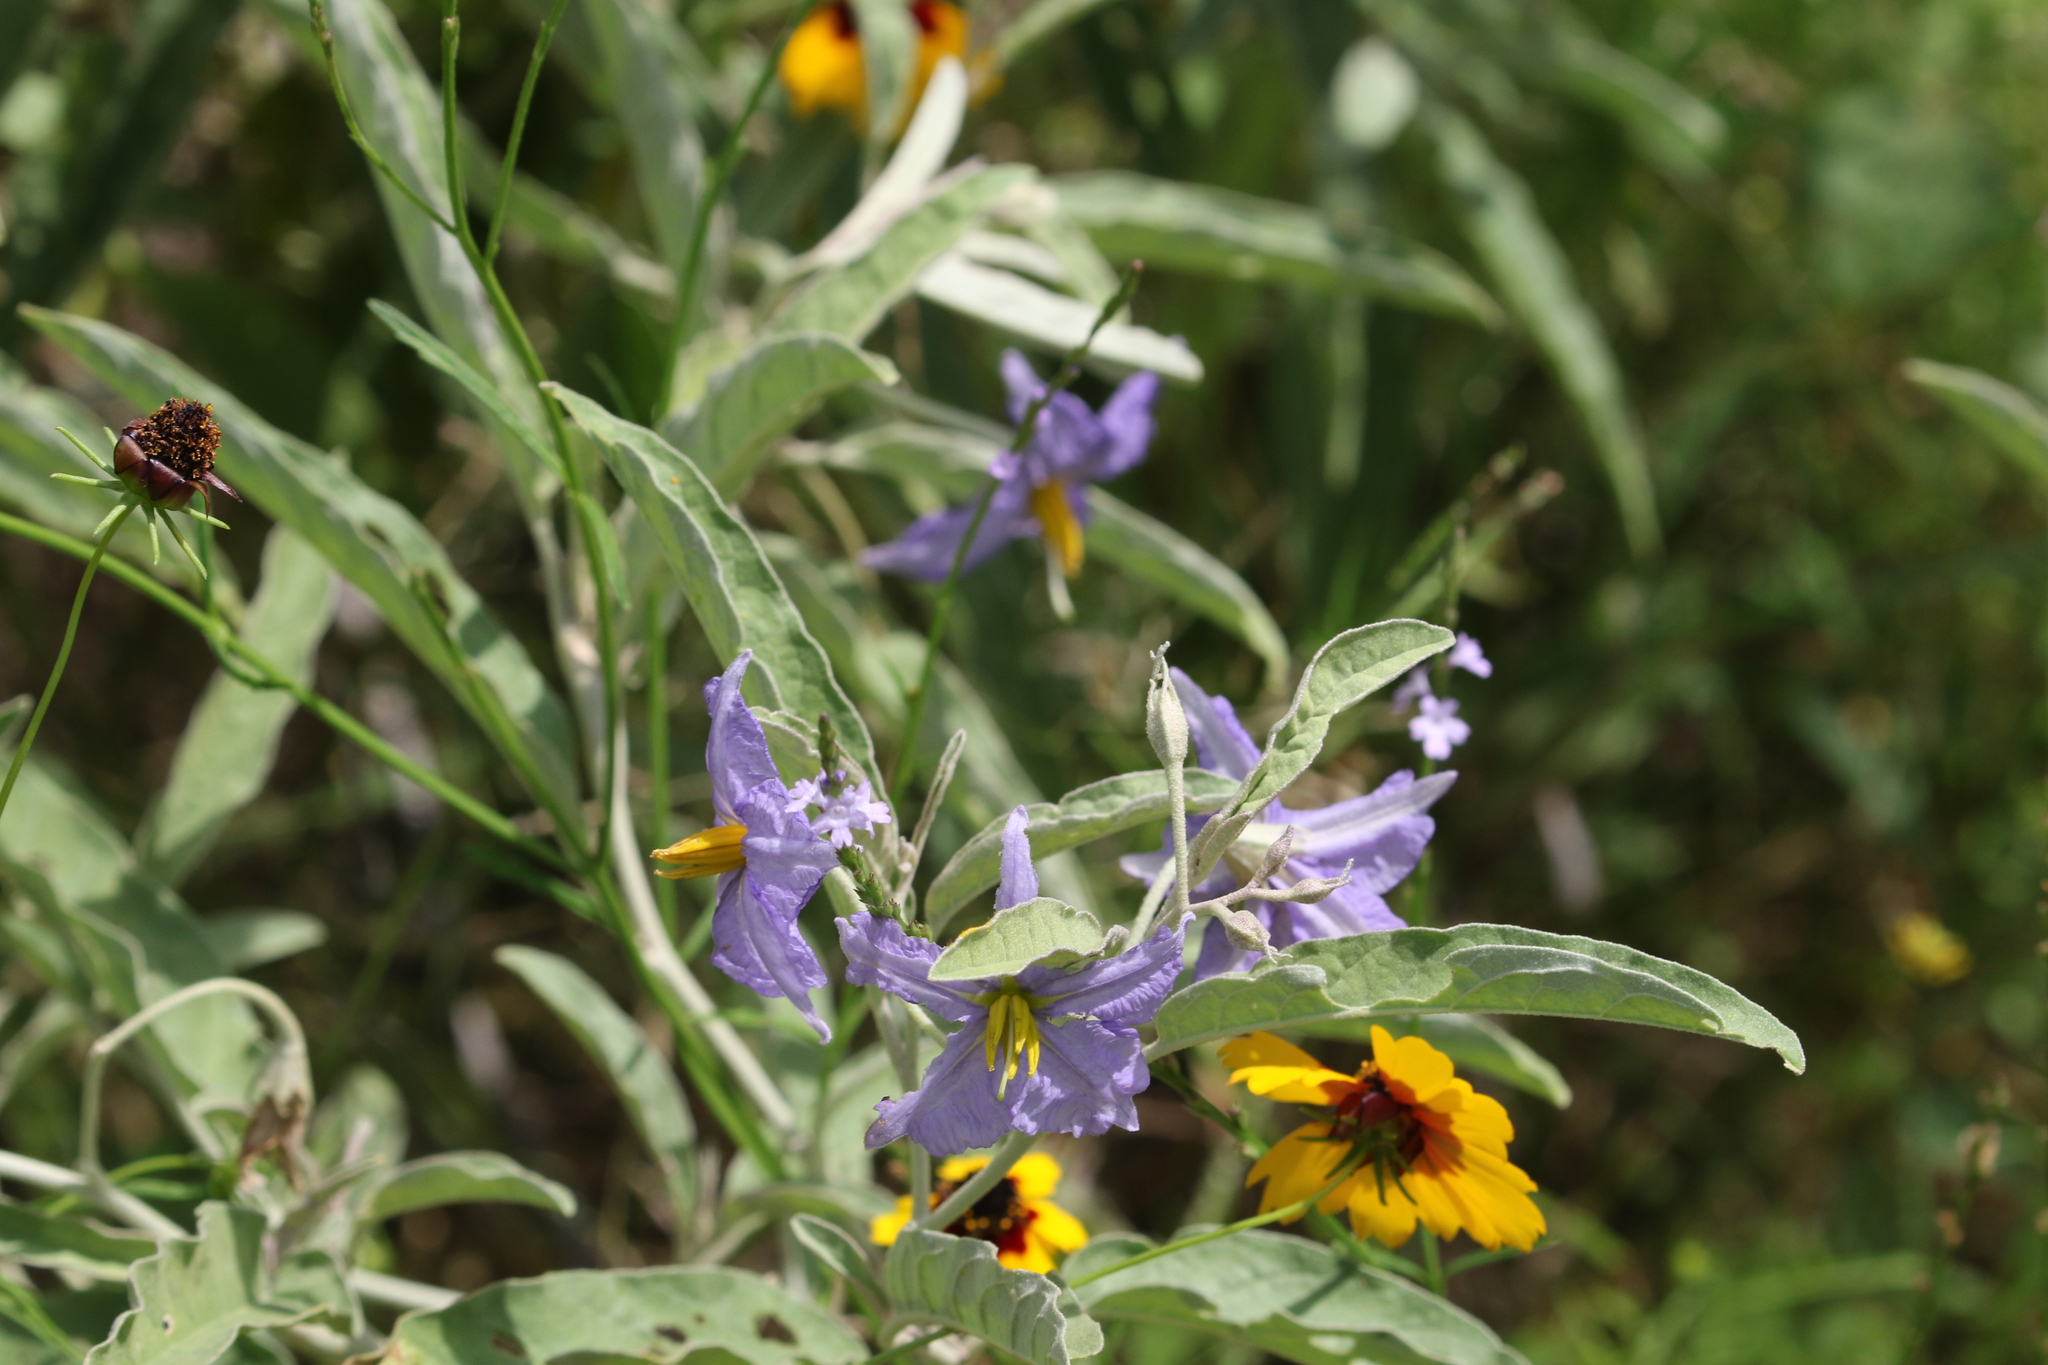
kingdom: Plantae
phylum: Tracheophyta
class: Magnoliopsida
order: Solanales
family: Solanaceae
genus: Solanum
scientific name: Solanum elaeagnifolium
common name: Silverleaf nightshade
